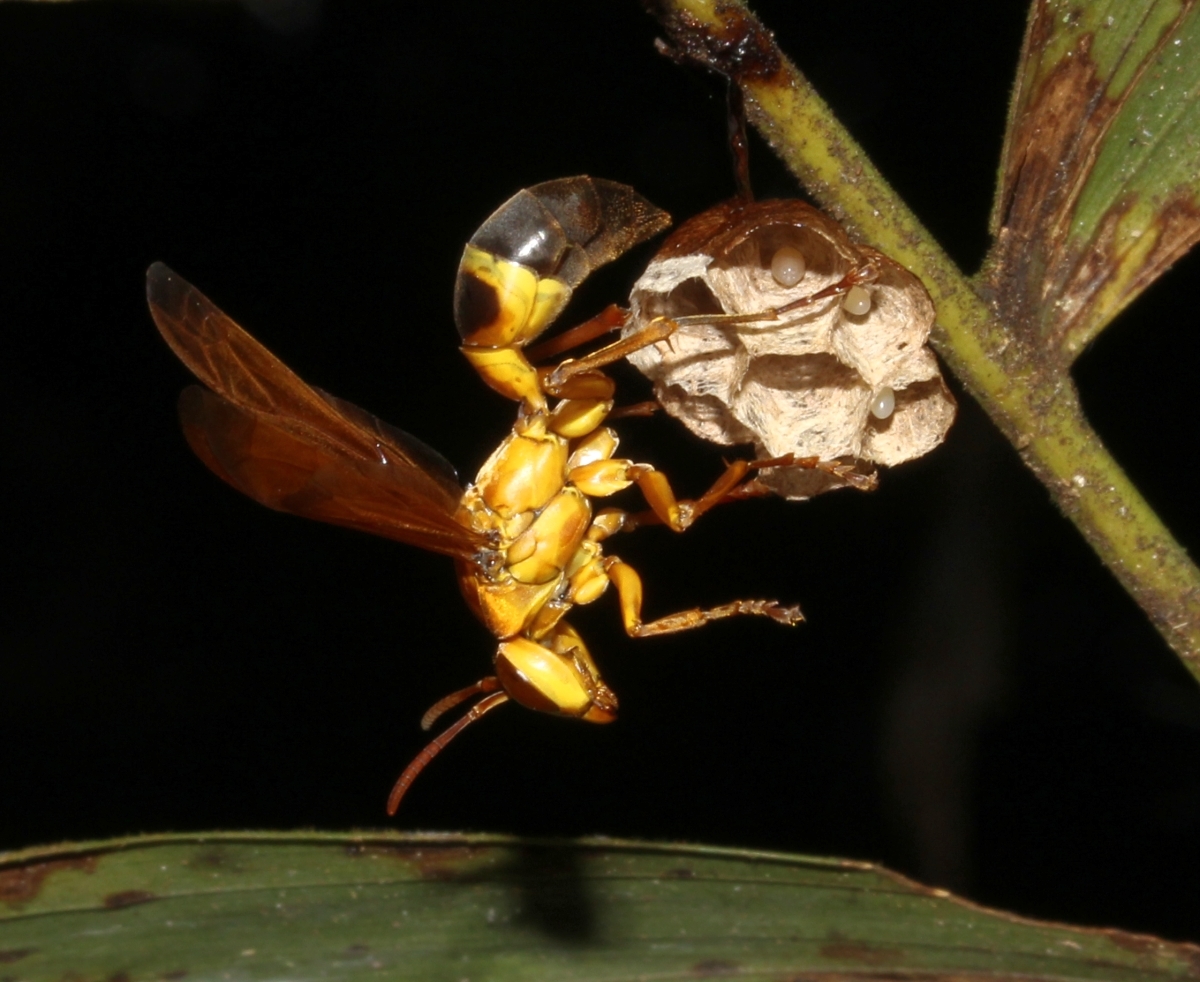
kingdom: Animalia
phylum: Arthropoda
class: Insecta
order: Hymenoptera
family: Eumenidae
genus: Polistes
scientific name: Polistes testaceicolor
